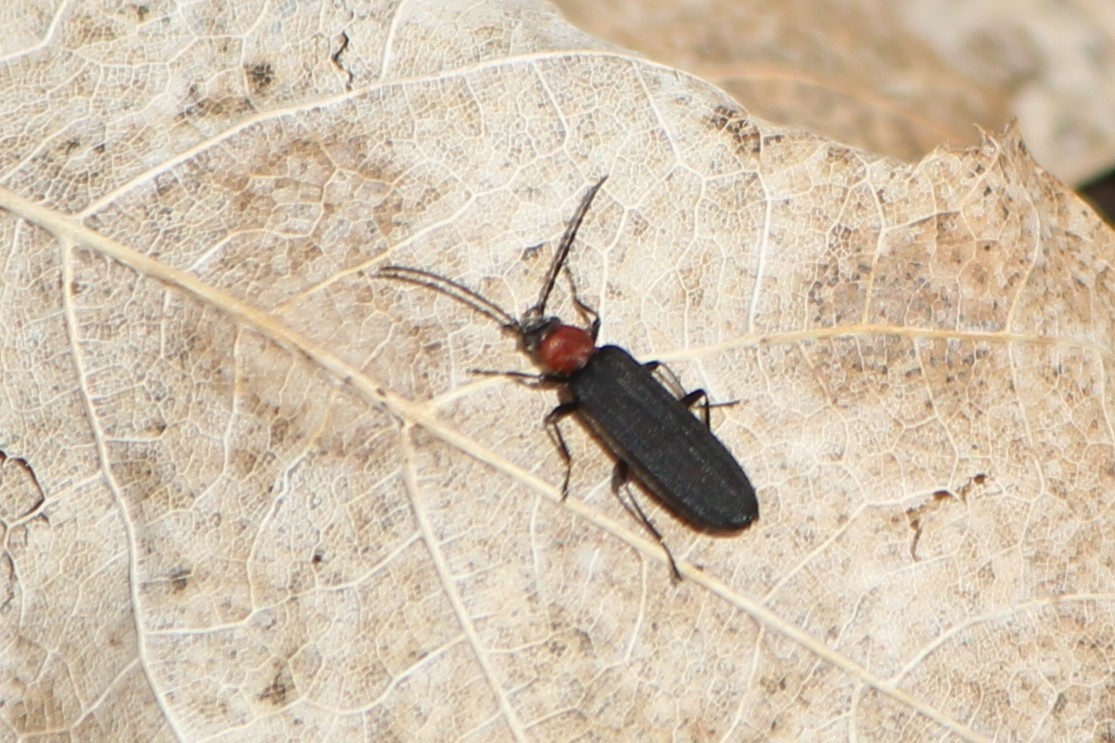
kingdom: Animalia
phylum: Arthropoda
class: Insecta
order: Coleoptera
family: Oedemeridae
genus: Ischnomera
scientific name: Ischnomera
